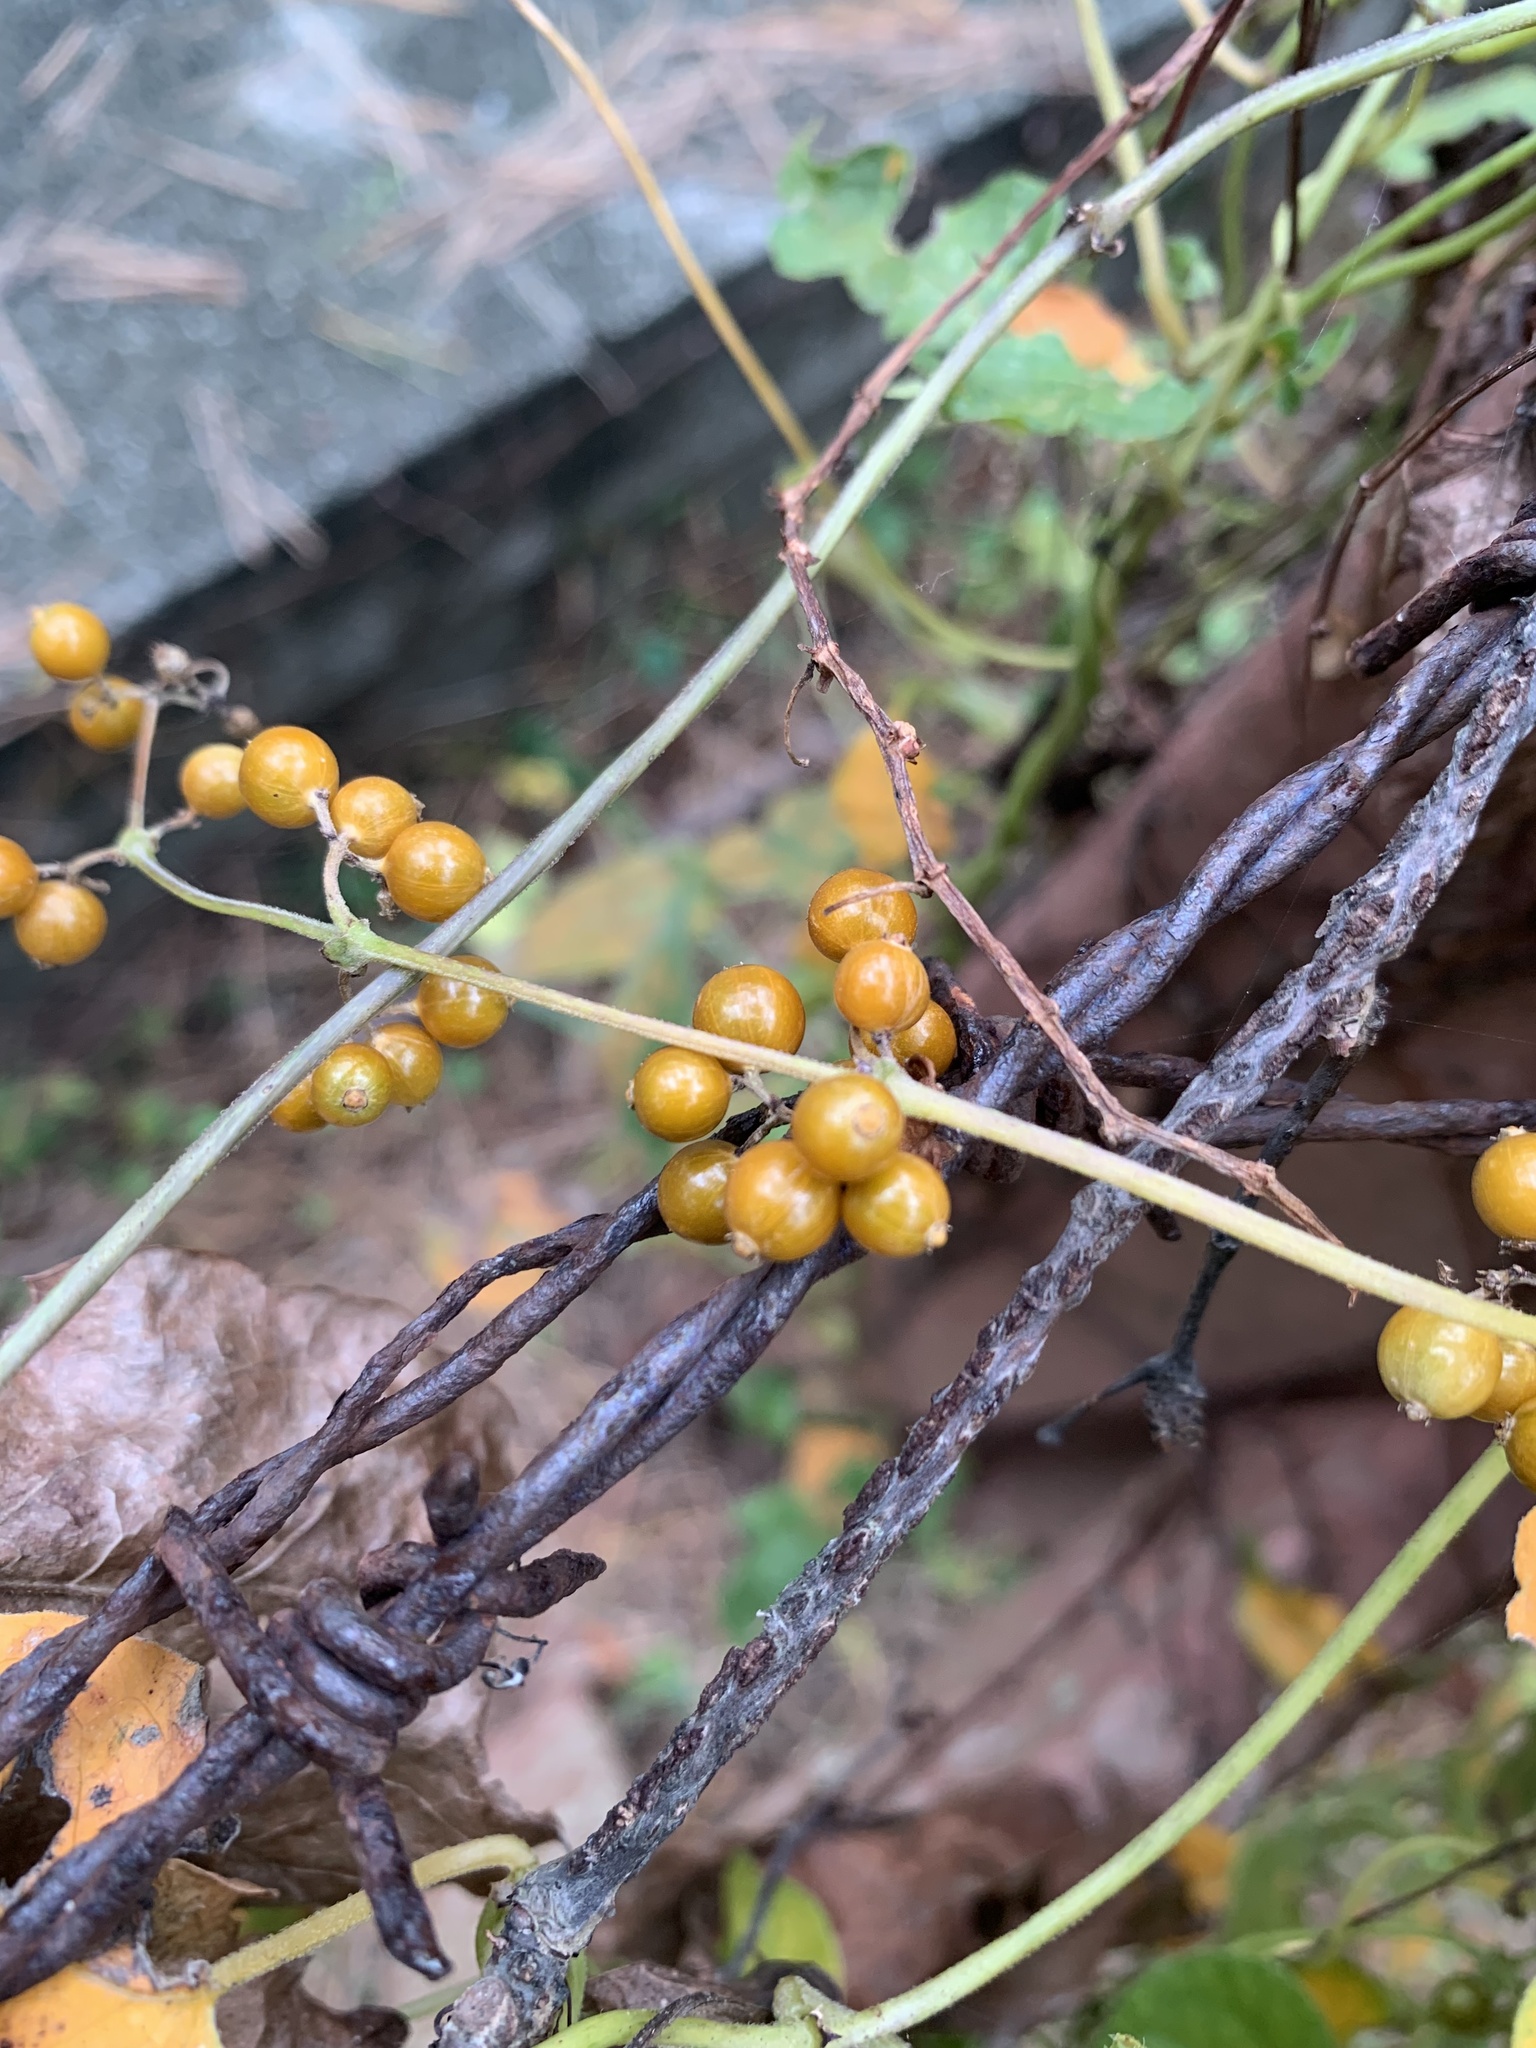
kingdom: Plantae
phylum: Tracheophyta
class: Magnoliopsida
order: Gentianales
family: Rubiaceae
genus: Paederia
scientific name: Paederia foetida
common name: Stinkvine
